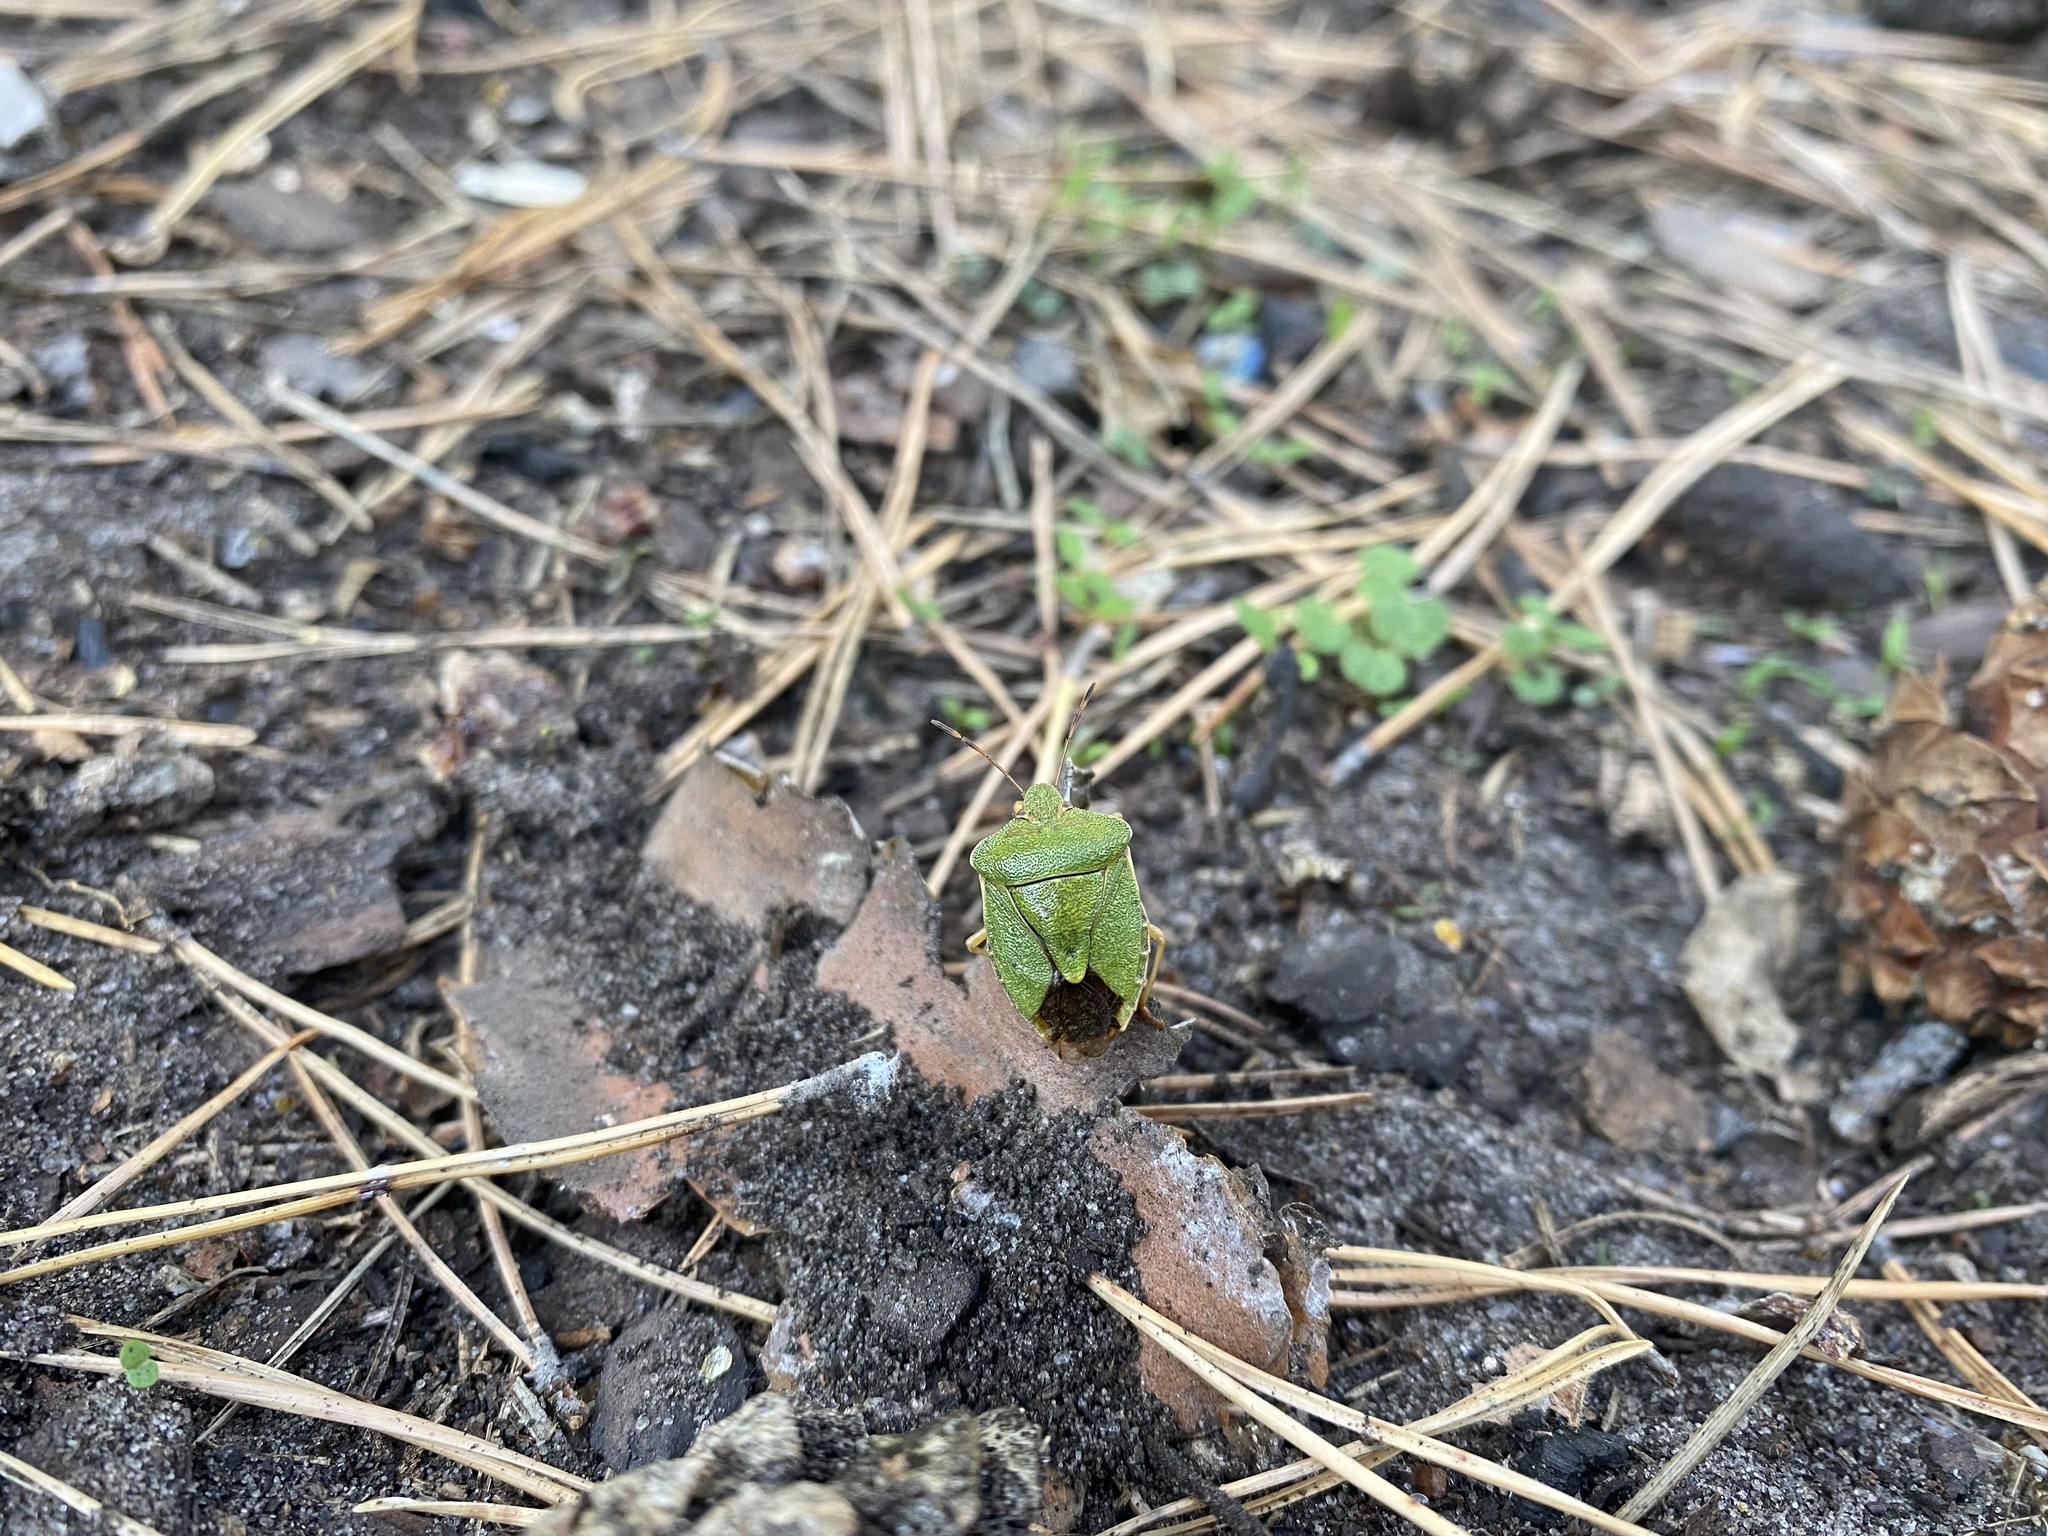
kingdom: Animalia
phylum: Arthropoda
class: Insecta
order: Hemiptera
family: Pentatomidae
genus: Palomena
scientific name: Palomena prasina
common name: Green shieldbug
